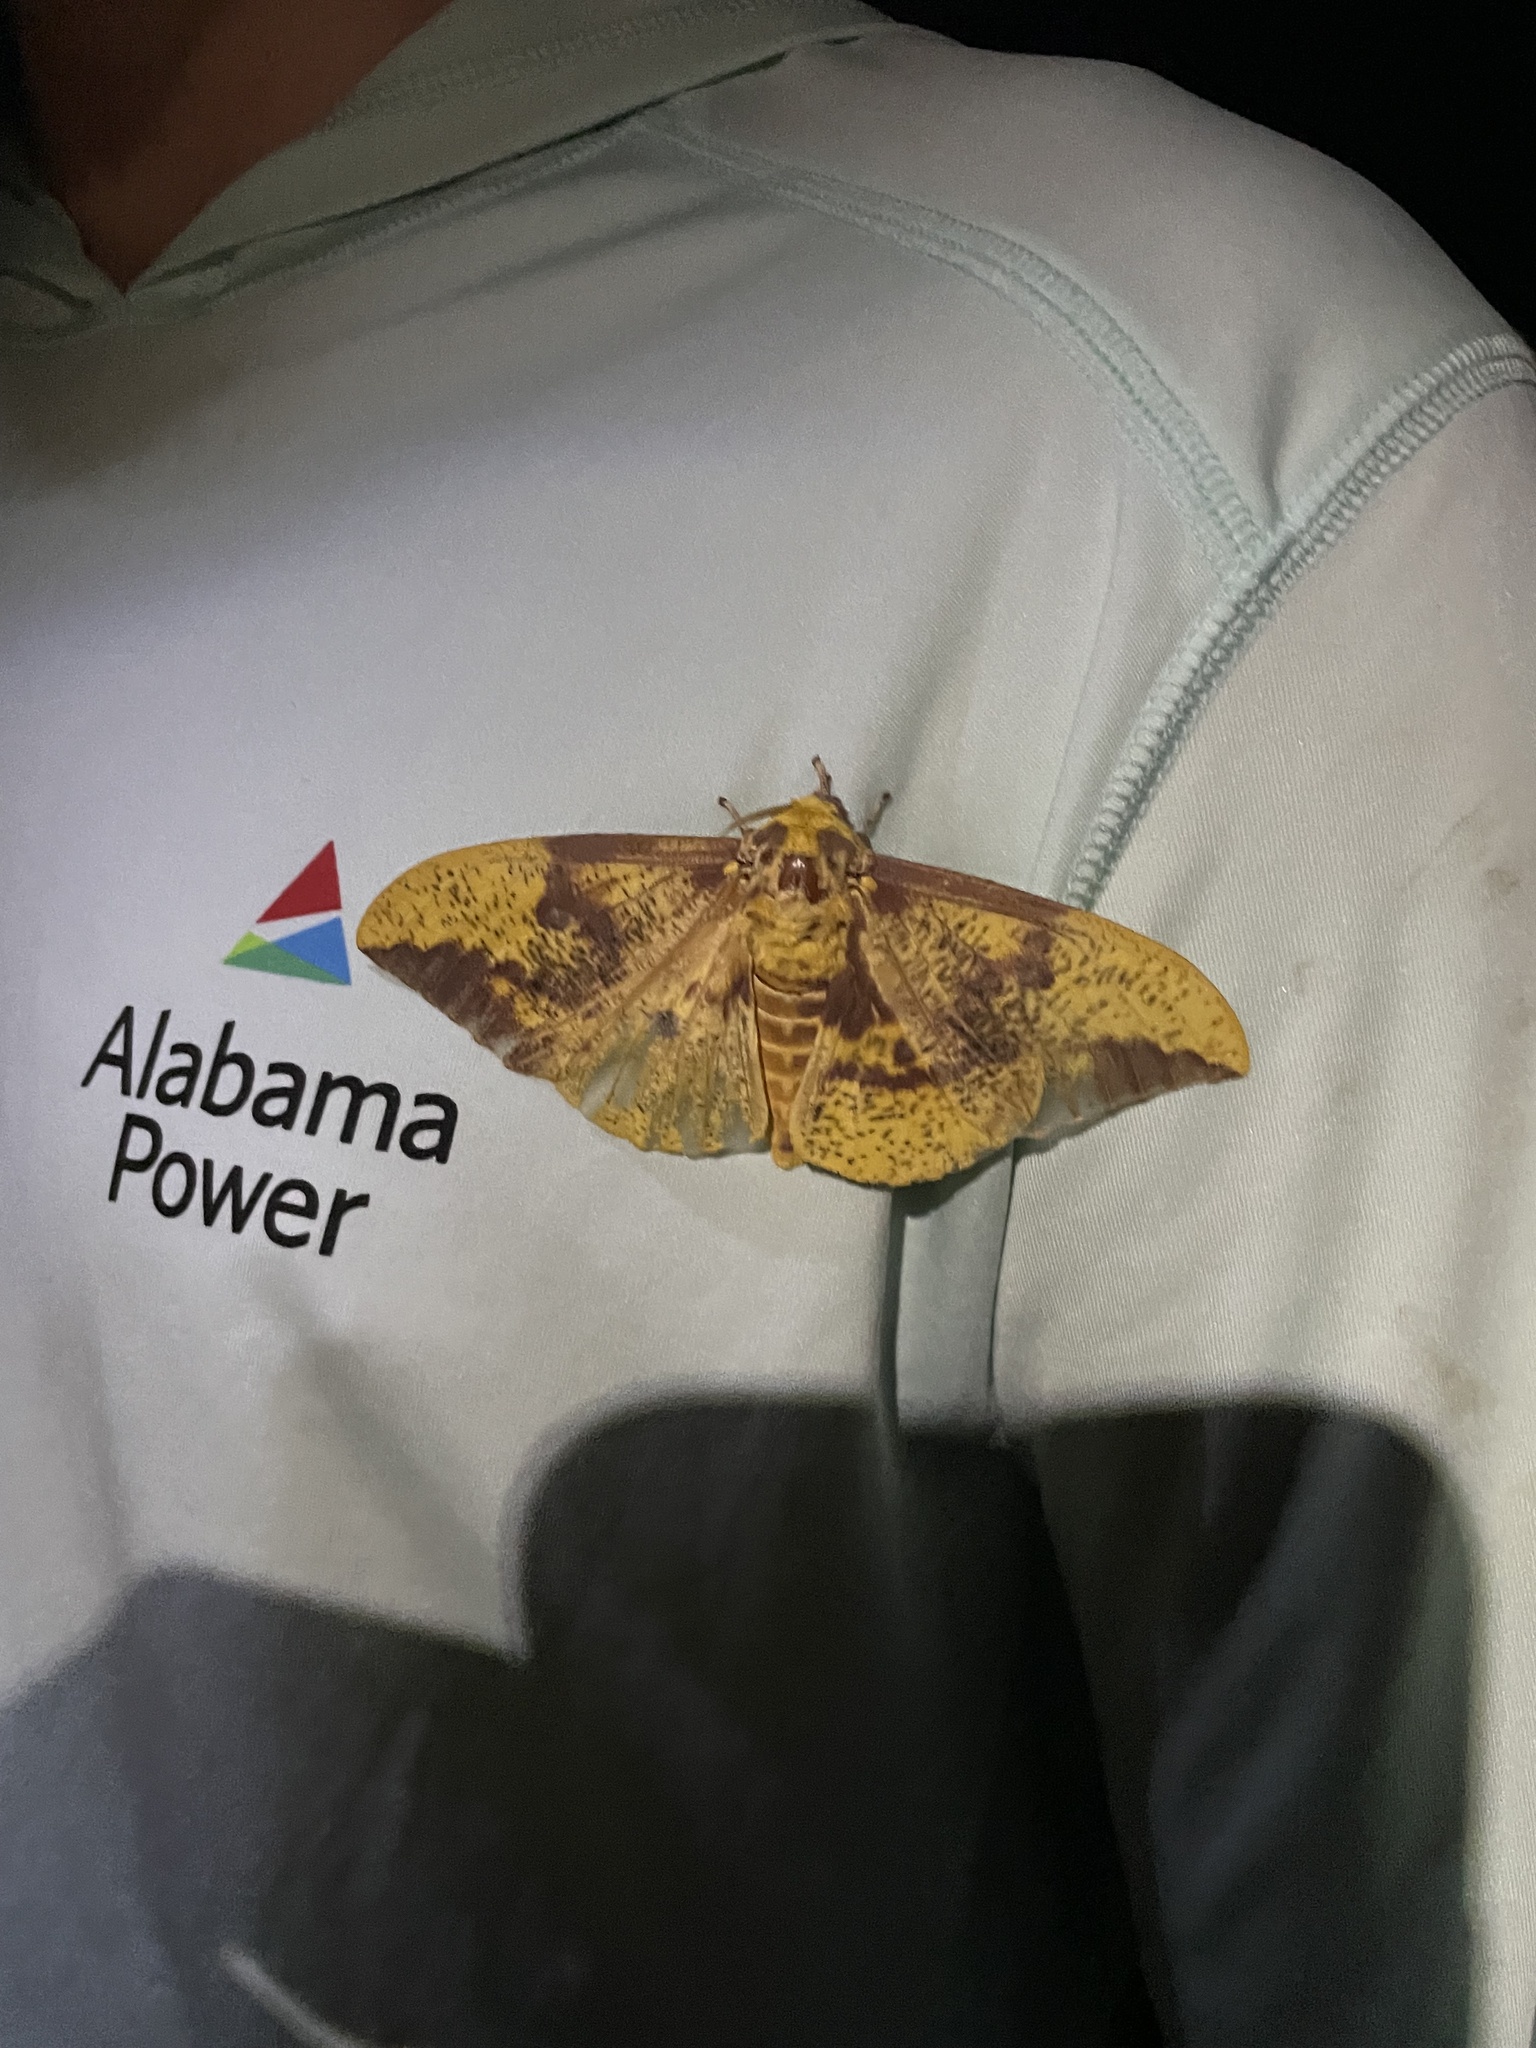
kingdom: Animalia
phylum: Arthropoda
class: Insecta
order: Lepidoptera
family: Saturniidae
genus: Eacles
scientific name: Eacles imperialis
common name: Imperial moth
